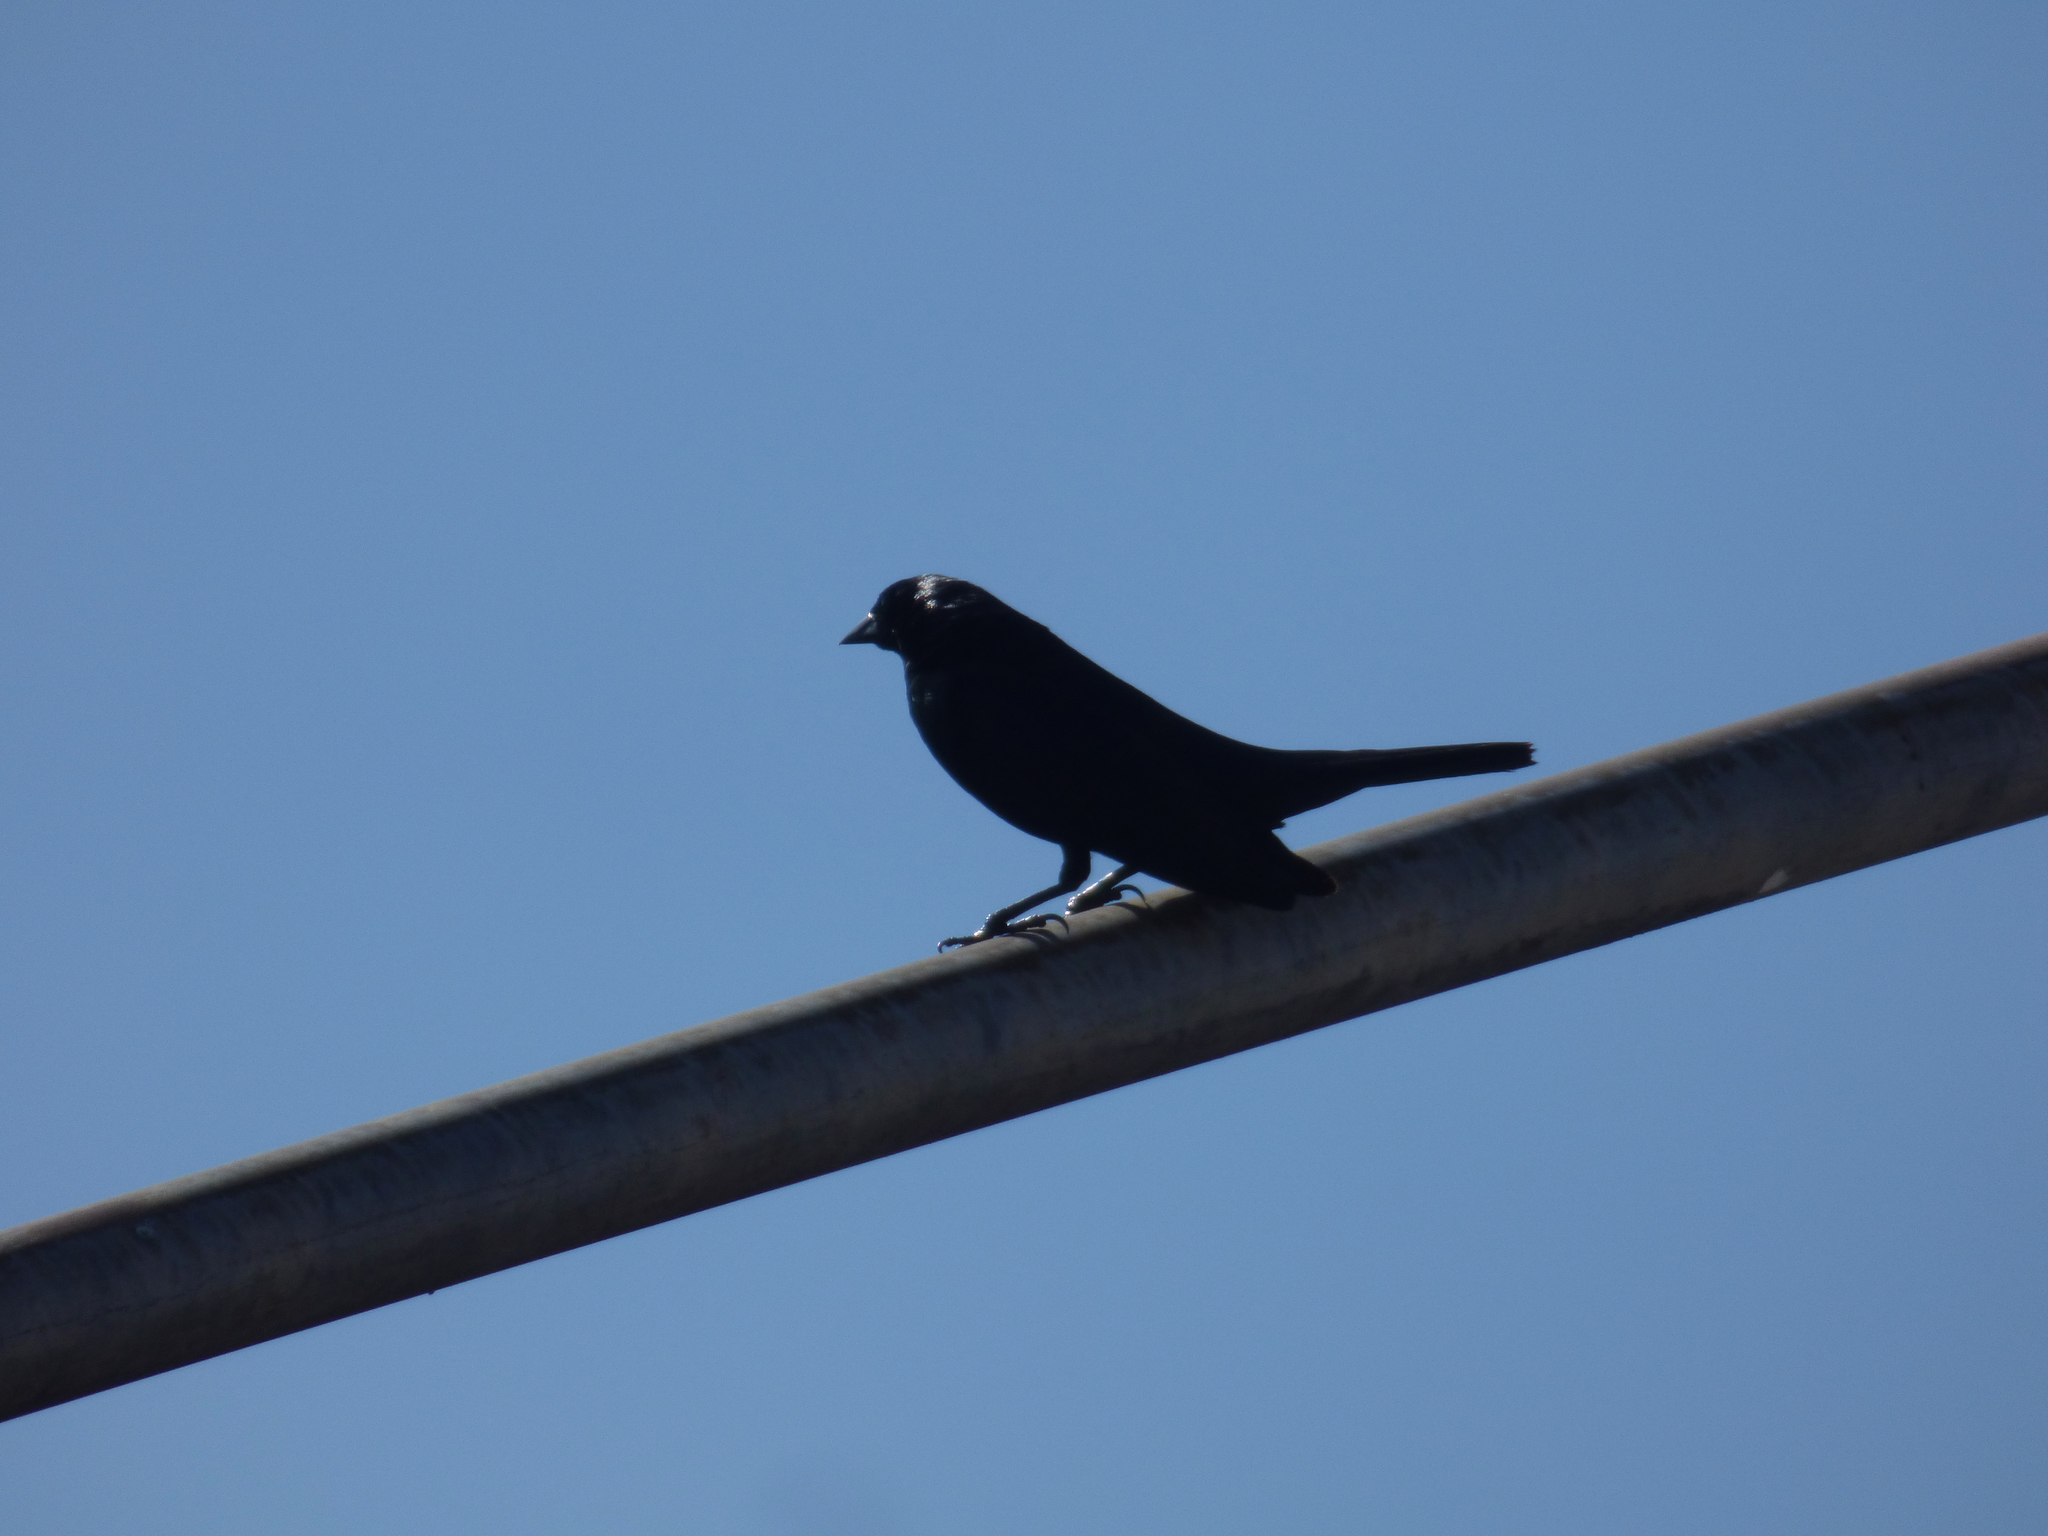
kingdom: Animalia
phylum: Chordata
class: Aves
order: Passeriformes
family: Icteridae
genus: Molothrus
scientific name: Molothrus bonariensis
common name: Shiny cowbird
